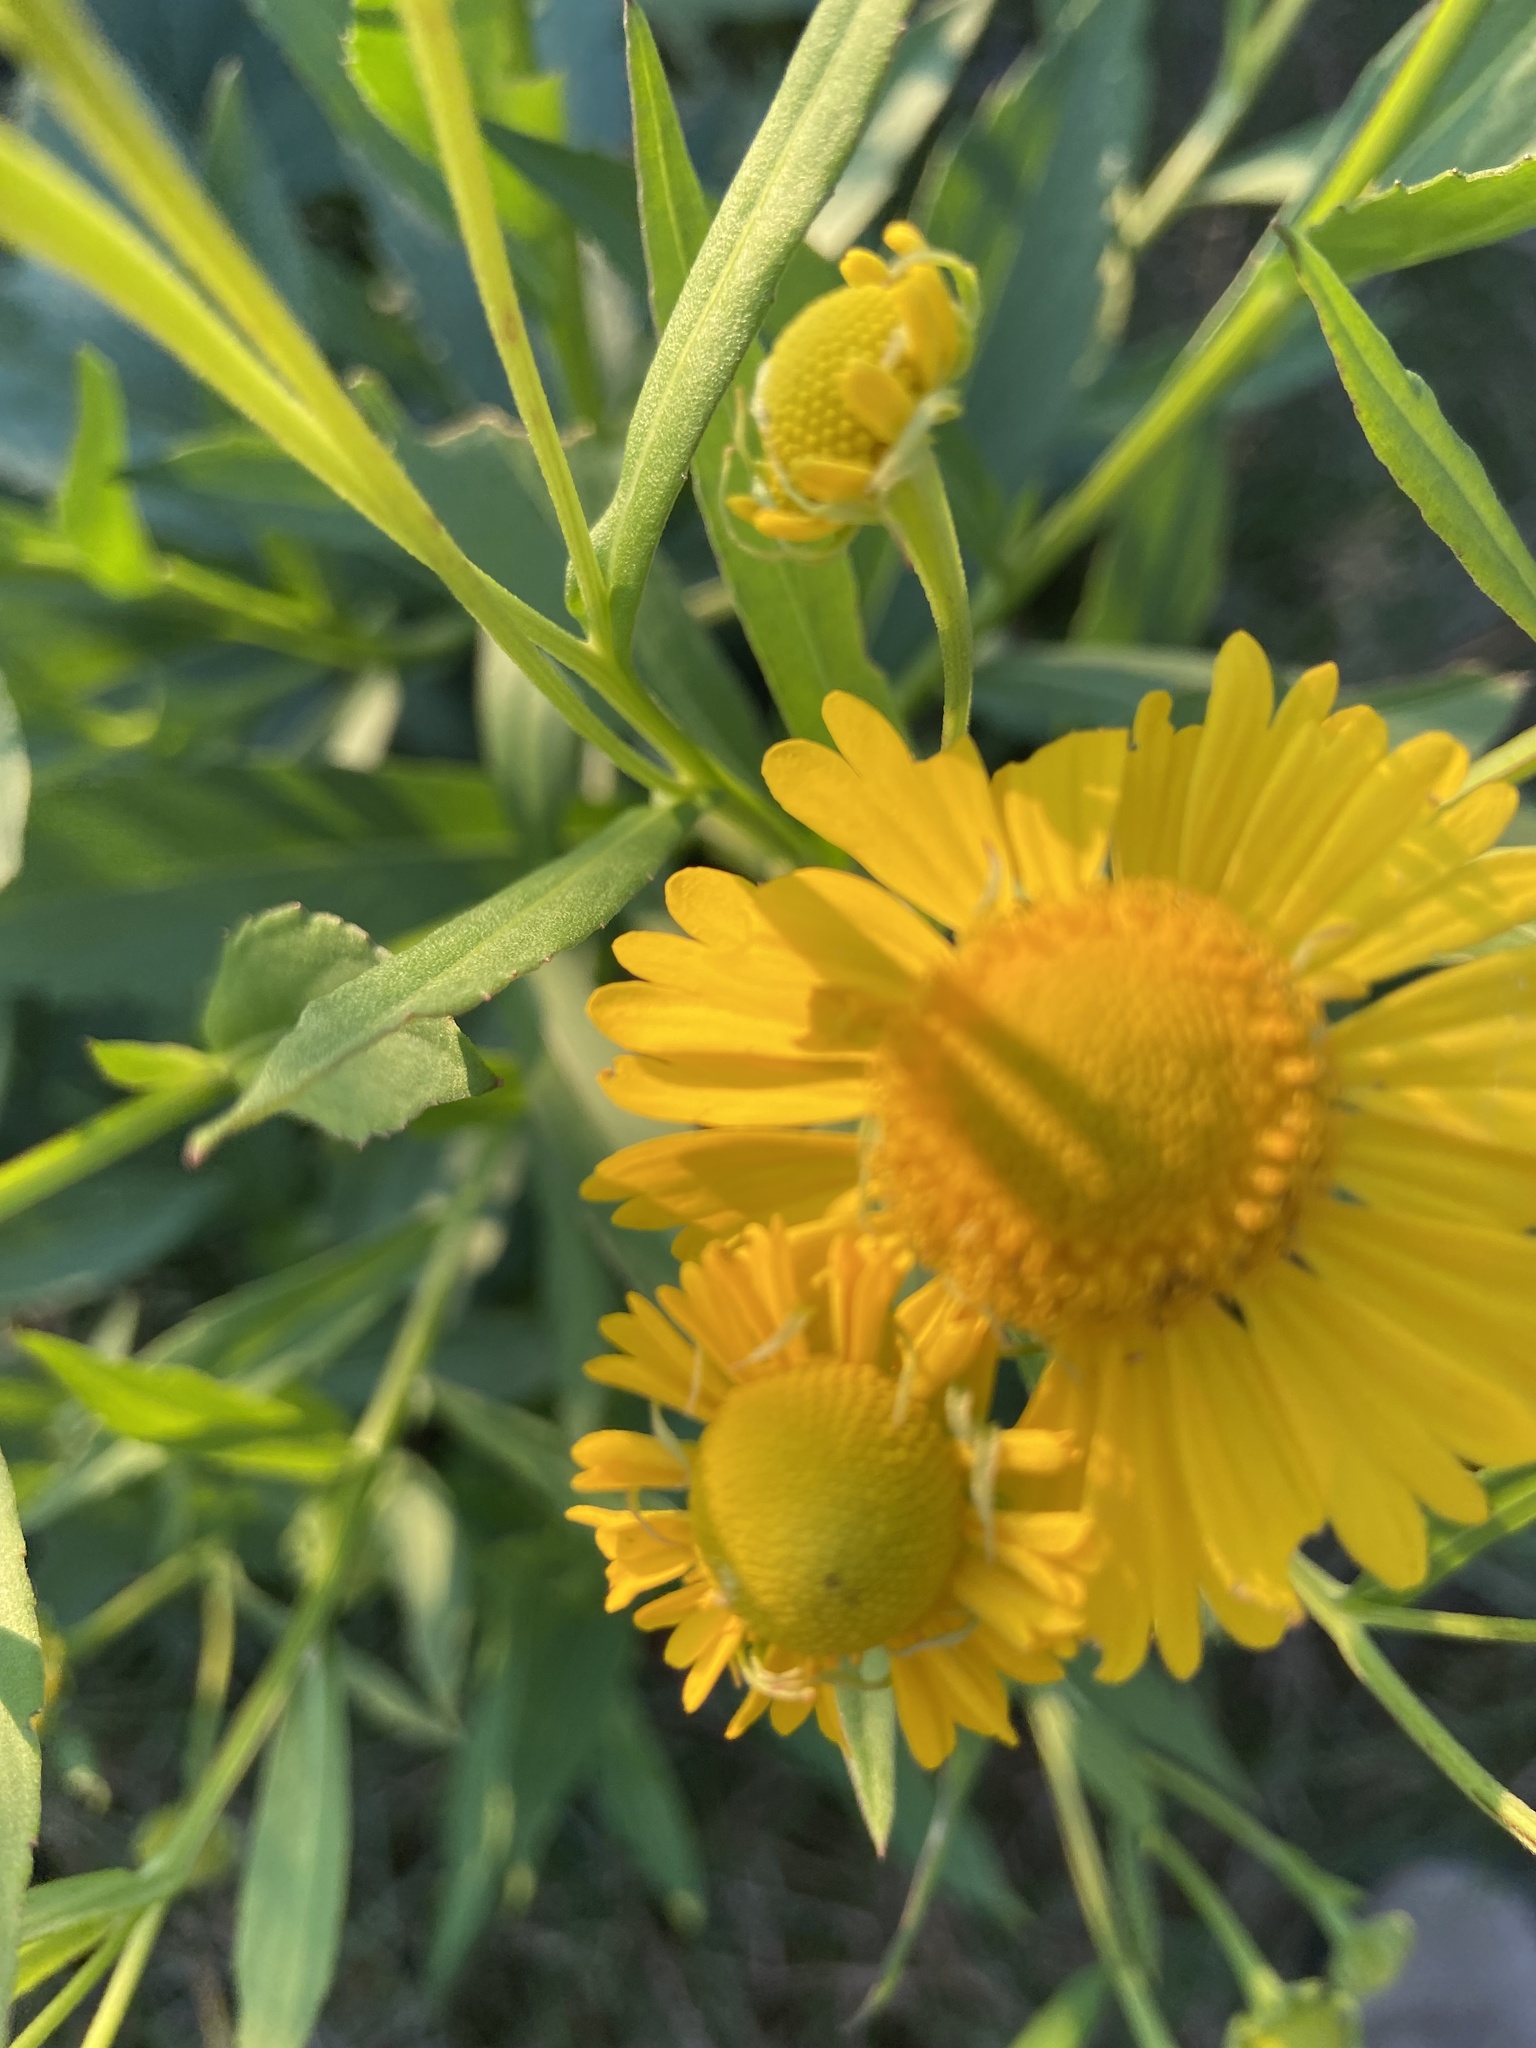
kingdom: Plantae
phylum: Tracheophyta
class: Magnoliopsida
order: Asterales
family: Asteraceae
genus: Helenium
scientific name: Helenium autumnale
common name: Sneezeweed
